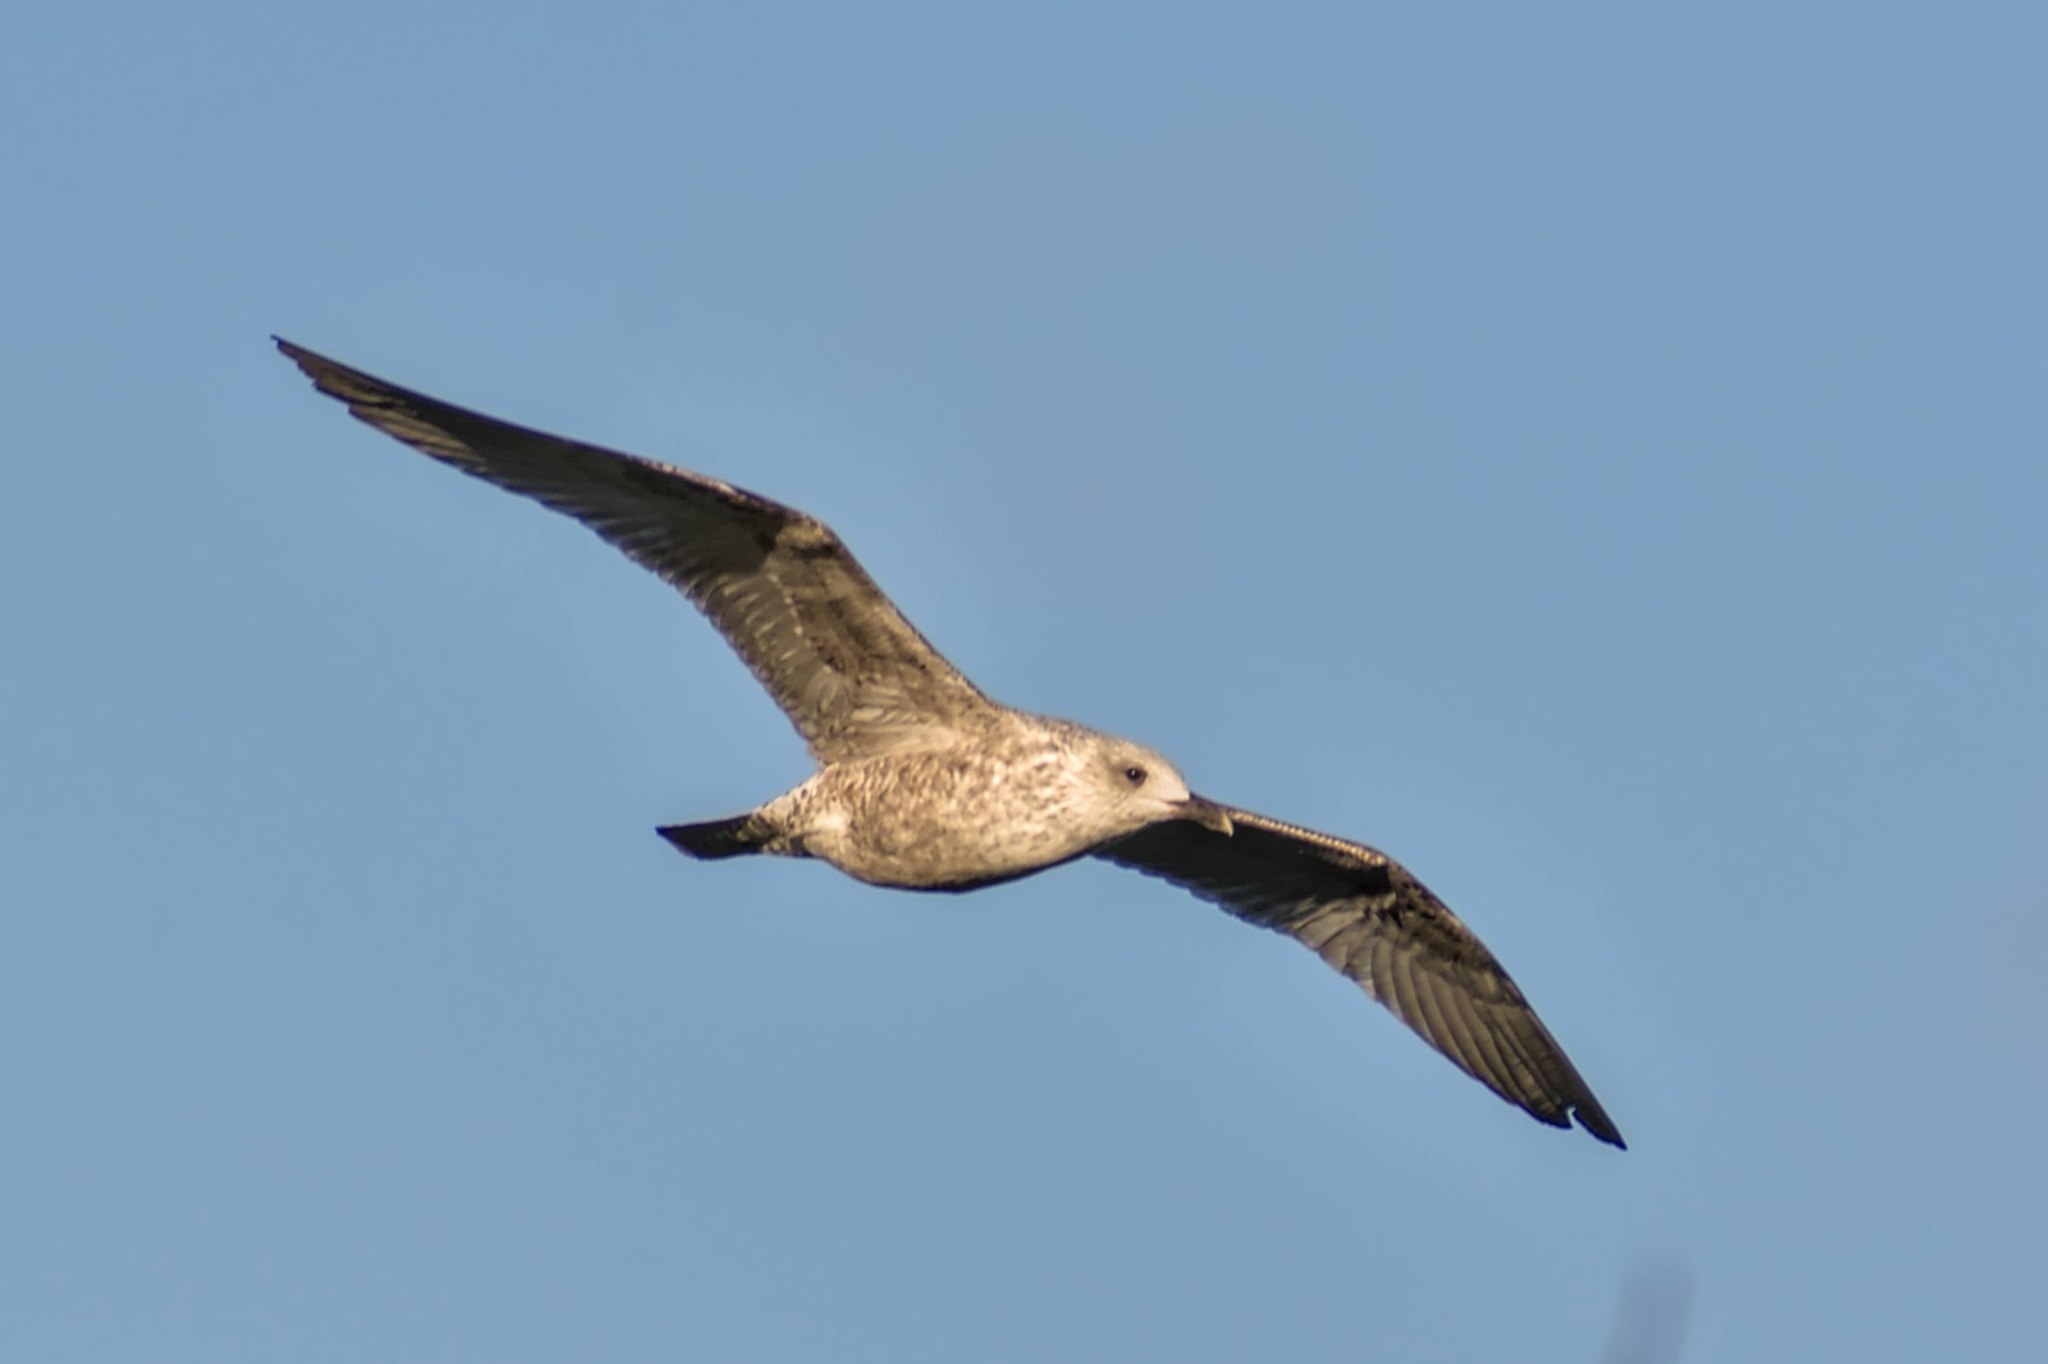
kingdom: Animalia
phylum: Chordata
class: Aves
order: Charadriiformes
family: Laridae
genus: Larus
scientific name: Larus argentatus
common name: Herring gull
